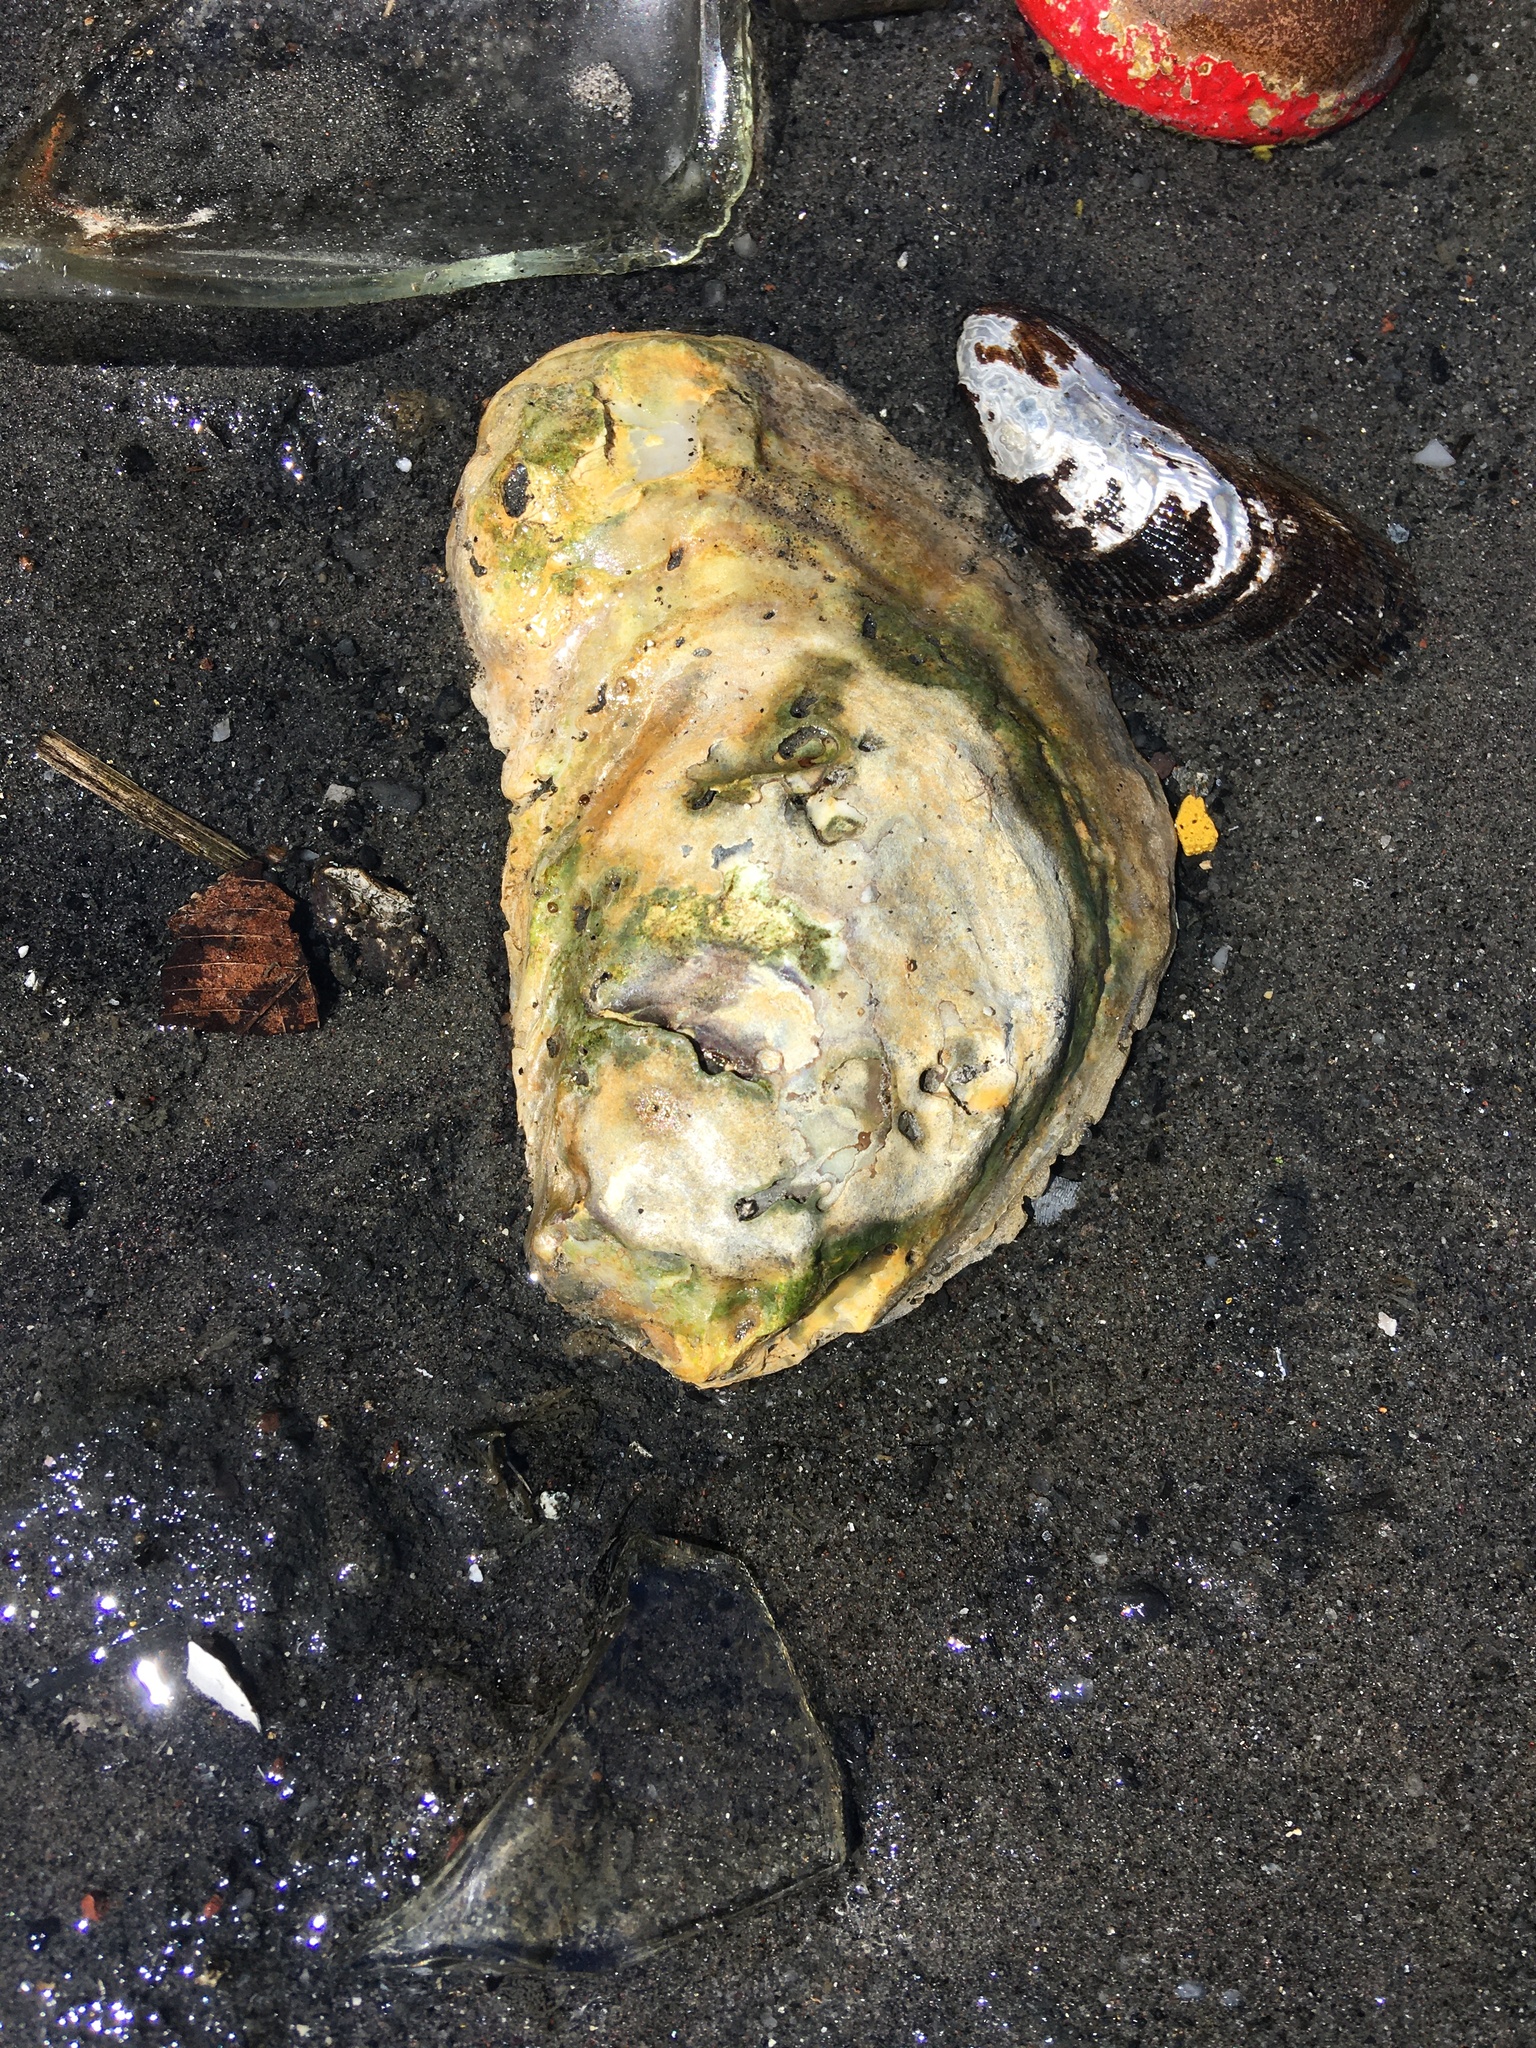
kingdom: Animalia
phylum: Mollusca
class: Bivalvia
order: Ostreida
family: Ostreidae
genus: Crassostrea
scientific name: Crassostrea virginica
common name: American oyster
